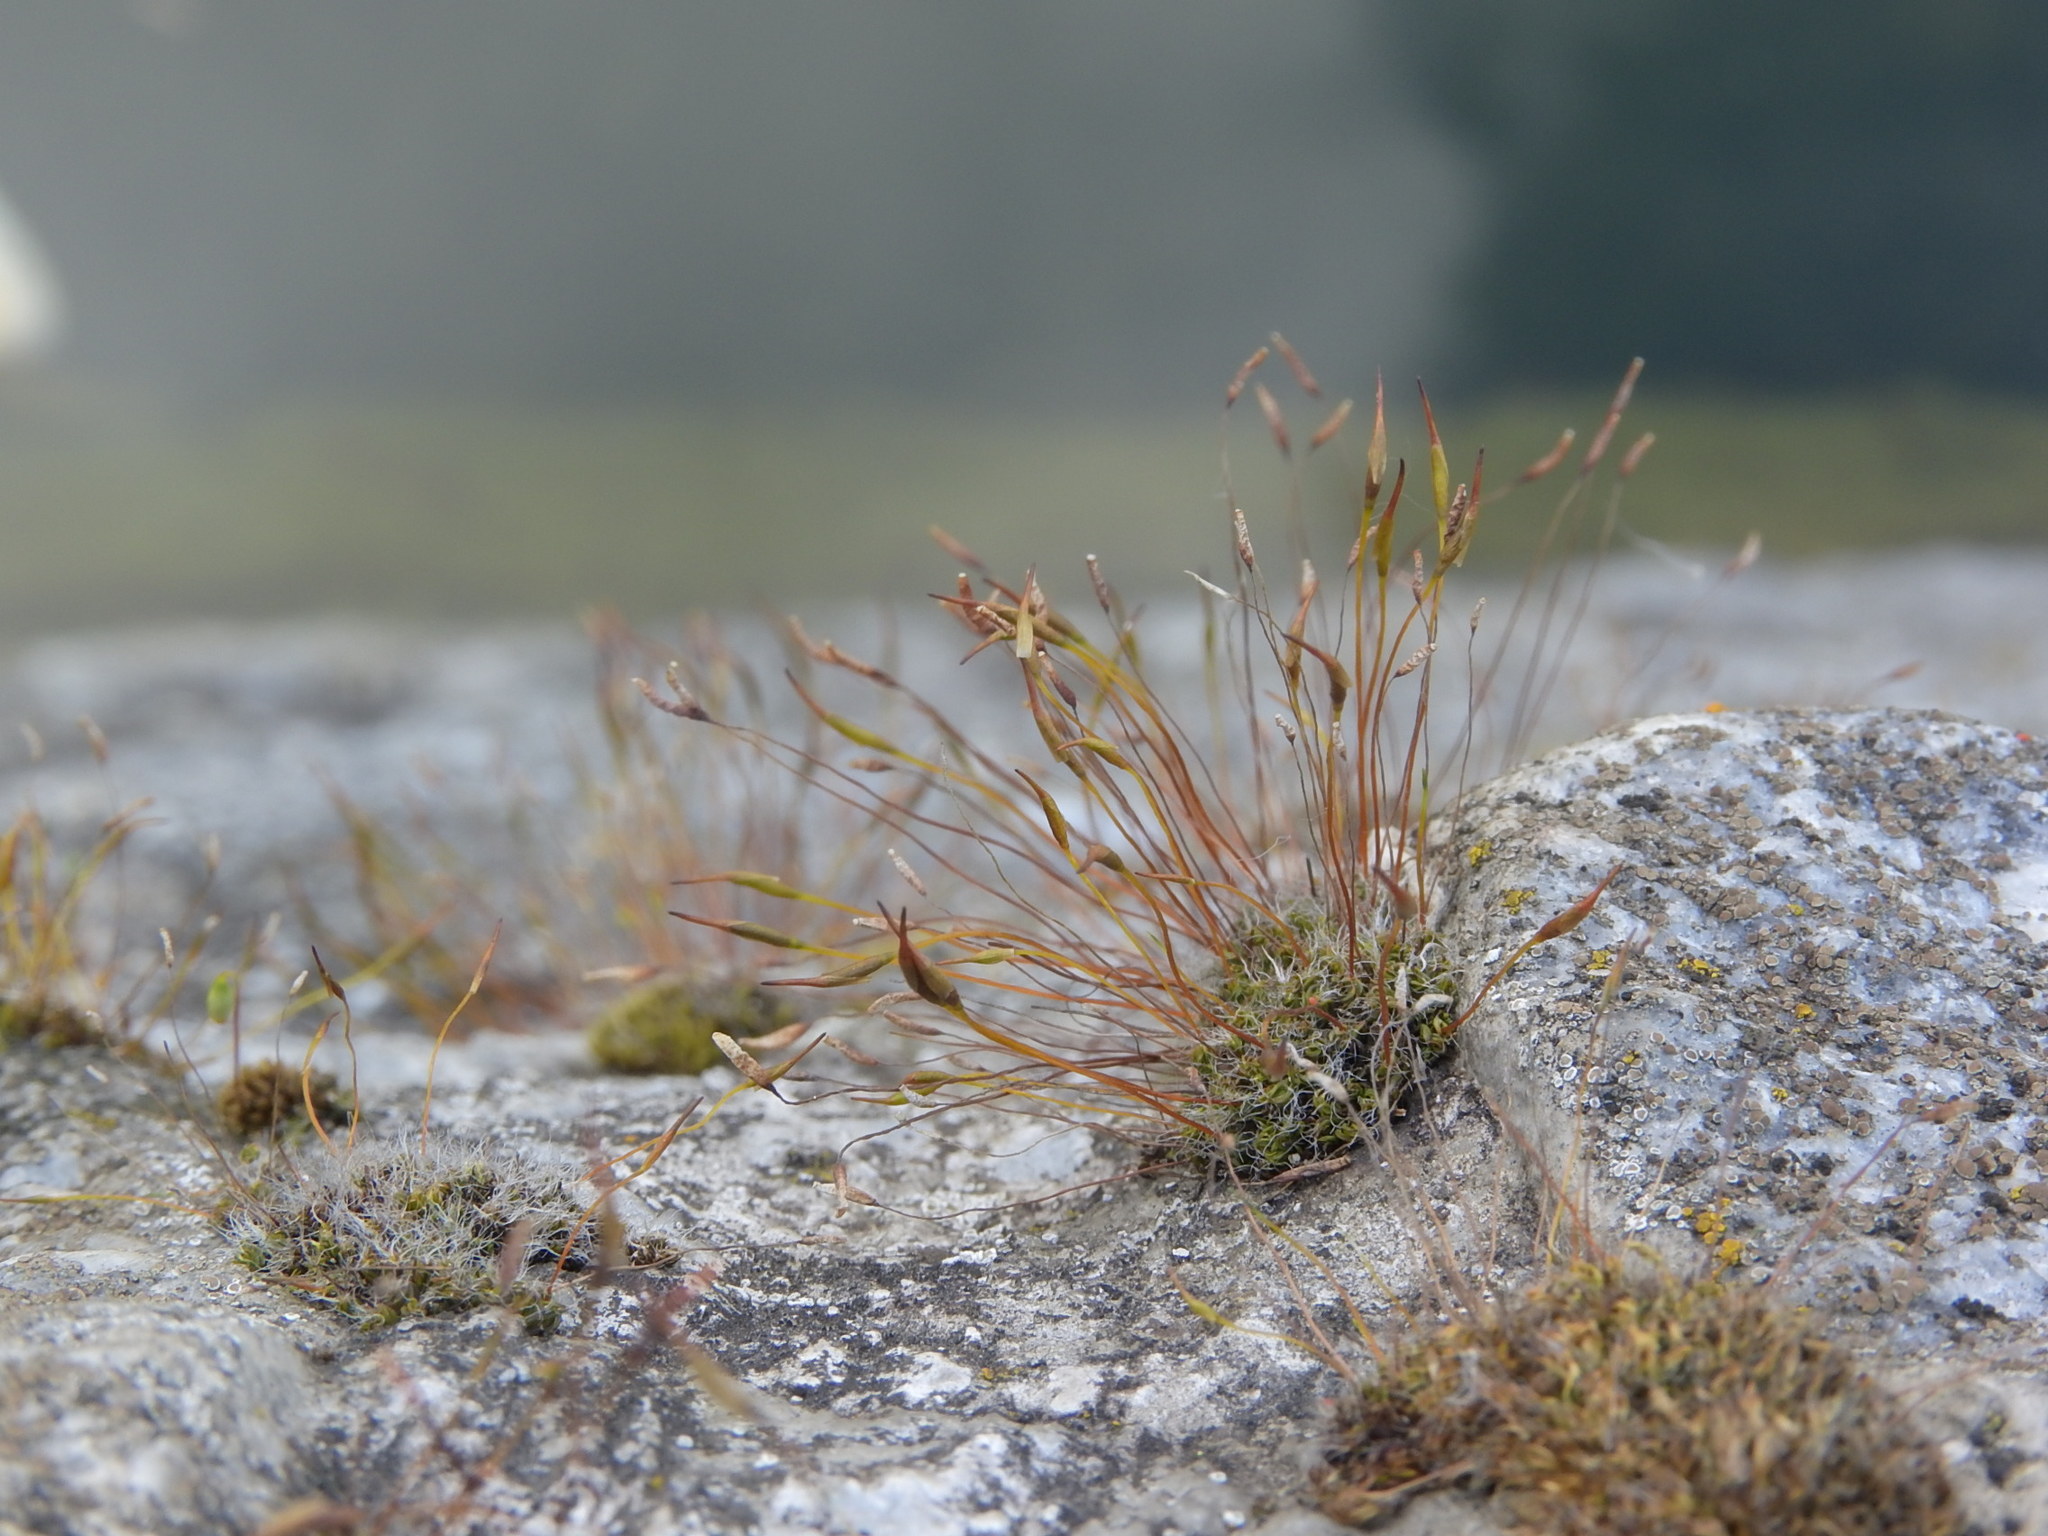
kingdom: Plantae
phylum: Bryophyta
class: Bryopsida
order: Pottiales
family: Pottiaceae
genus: Tortula
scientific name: Tortula muralis
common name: Wall screw-moss
